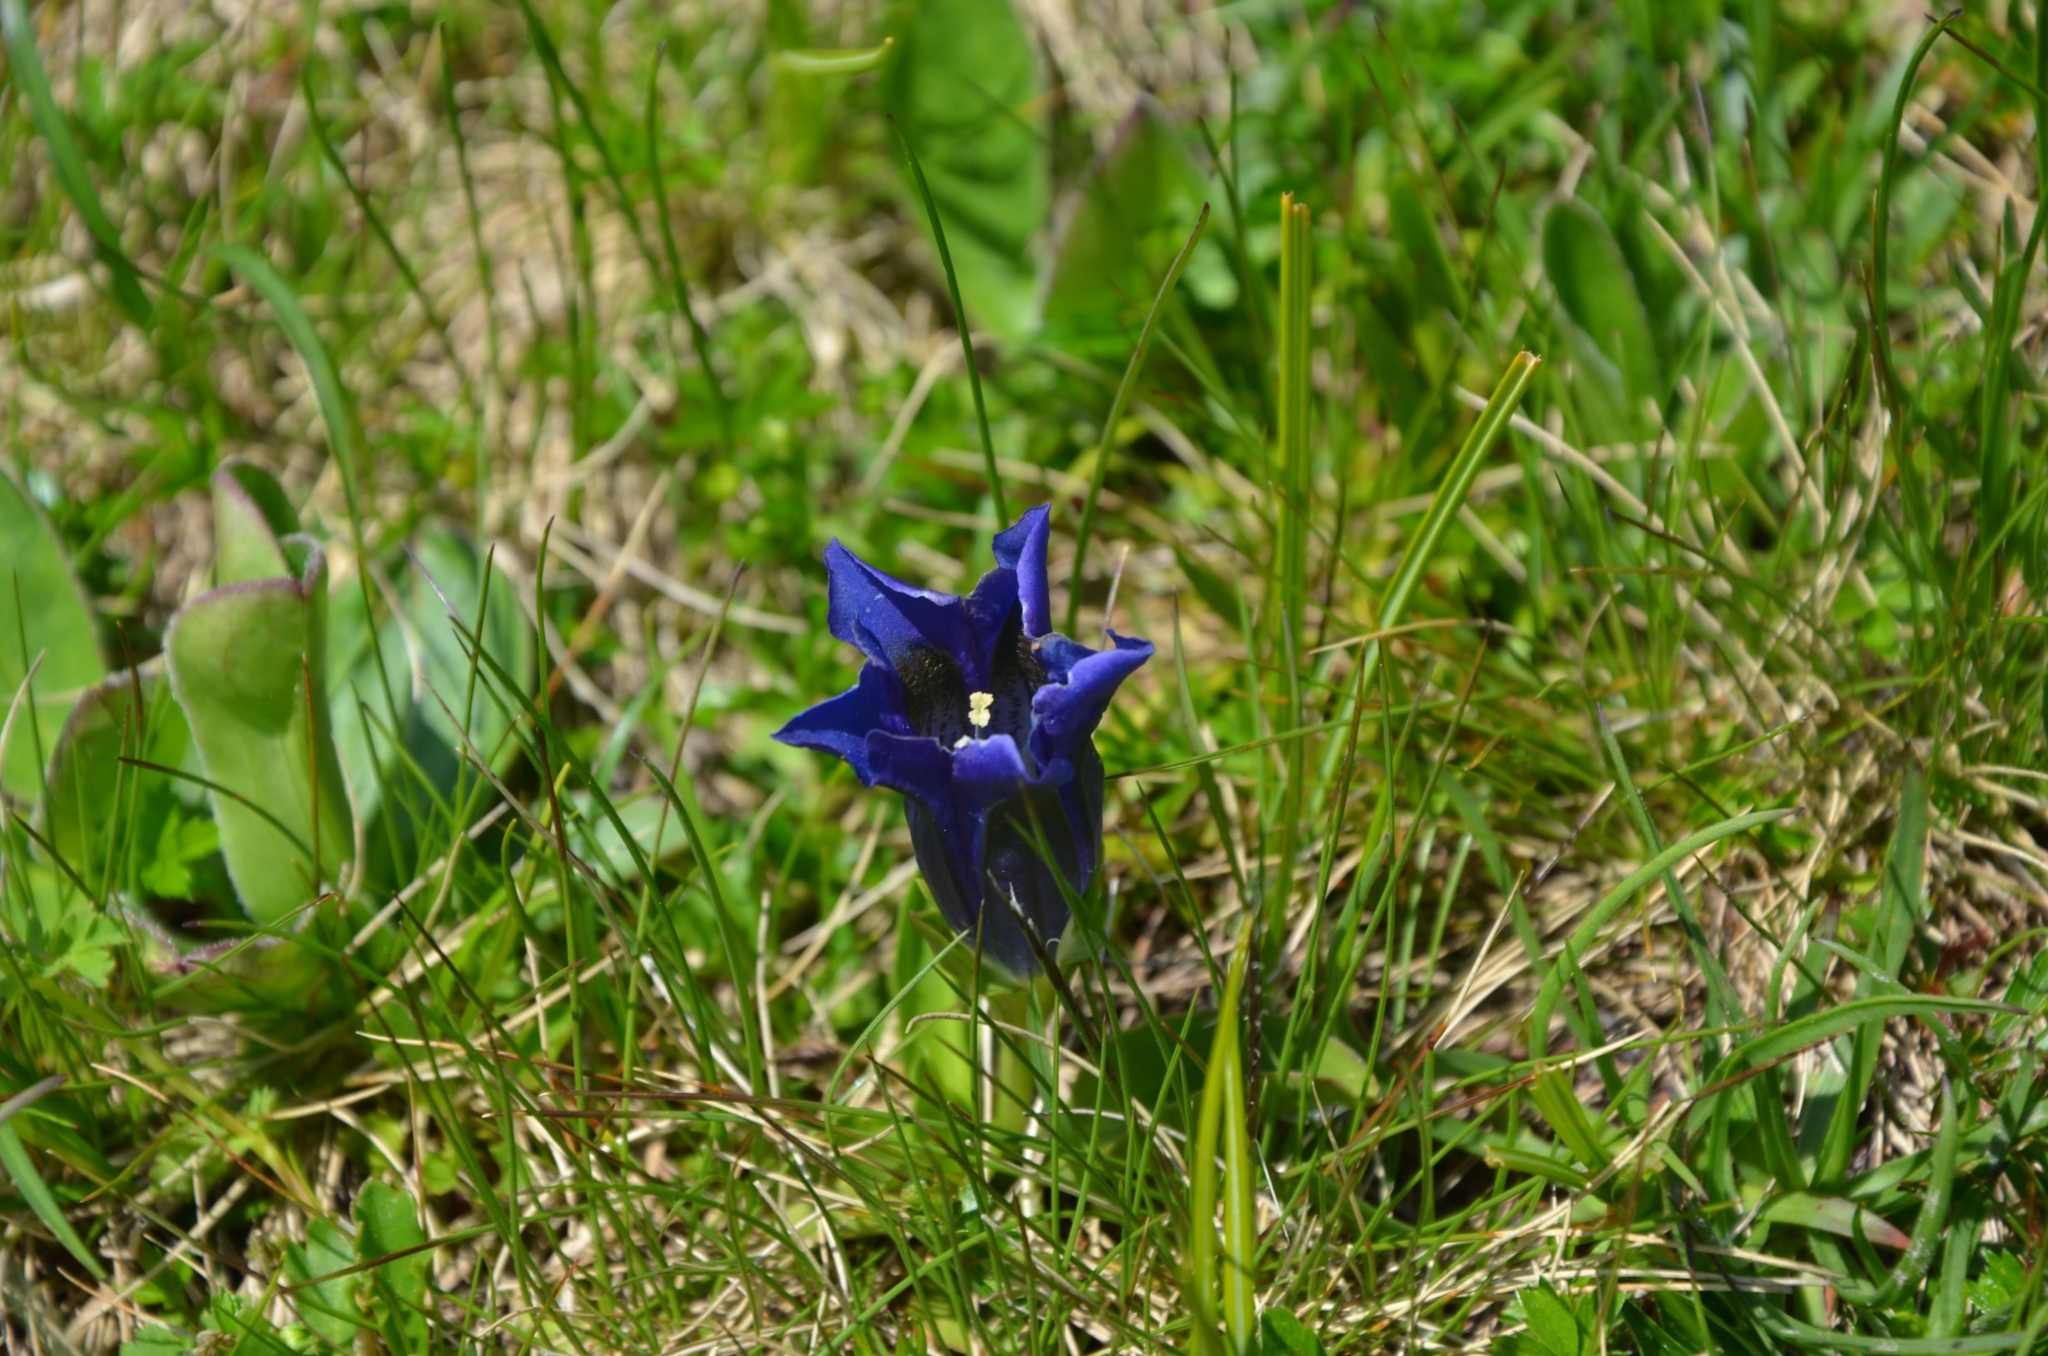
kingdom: Plantae
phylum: Tracheophyta
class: Magnoliopsida
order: Gentianales
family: Gentianaceae
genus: Gentiana
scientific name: Gentiana acaulis
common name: Trumpet gentian
